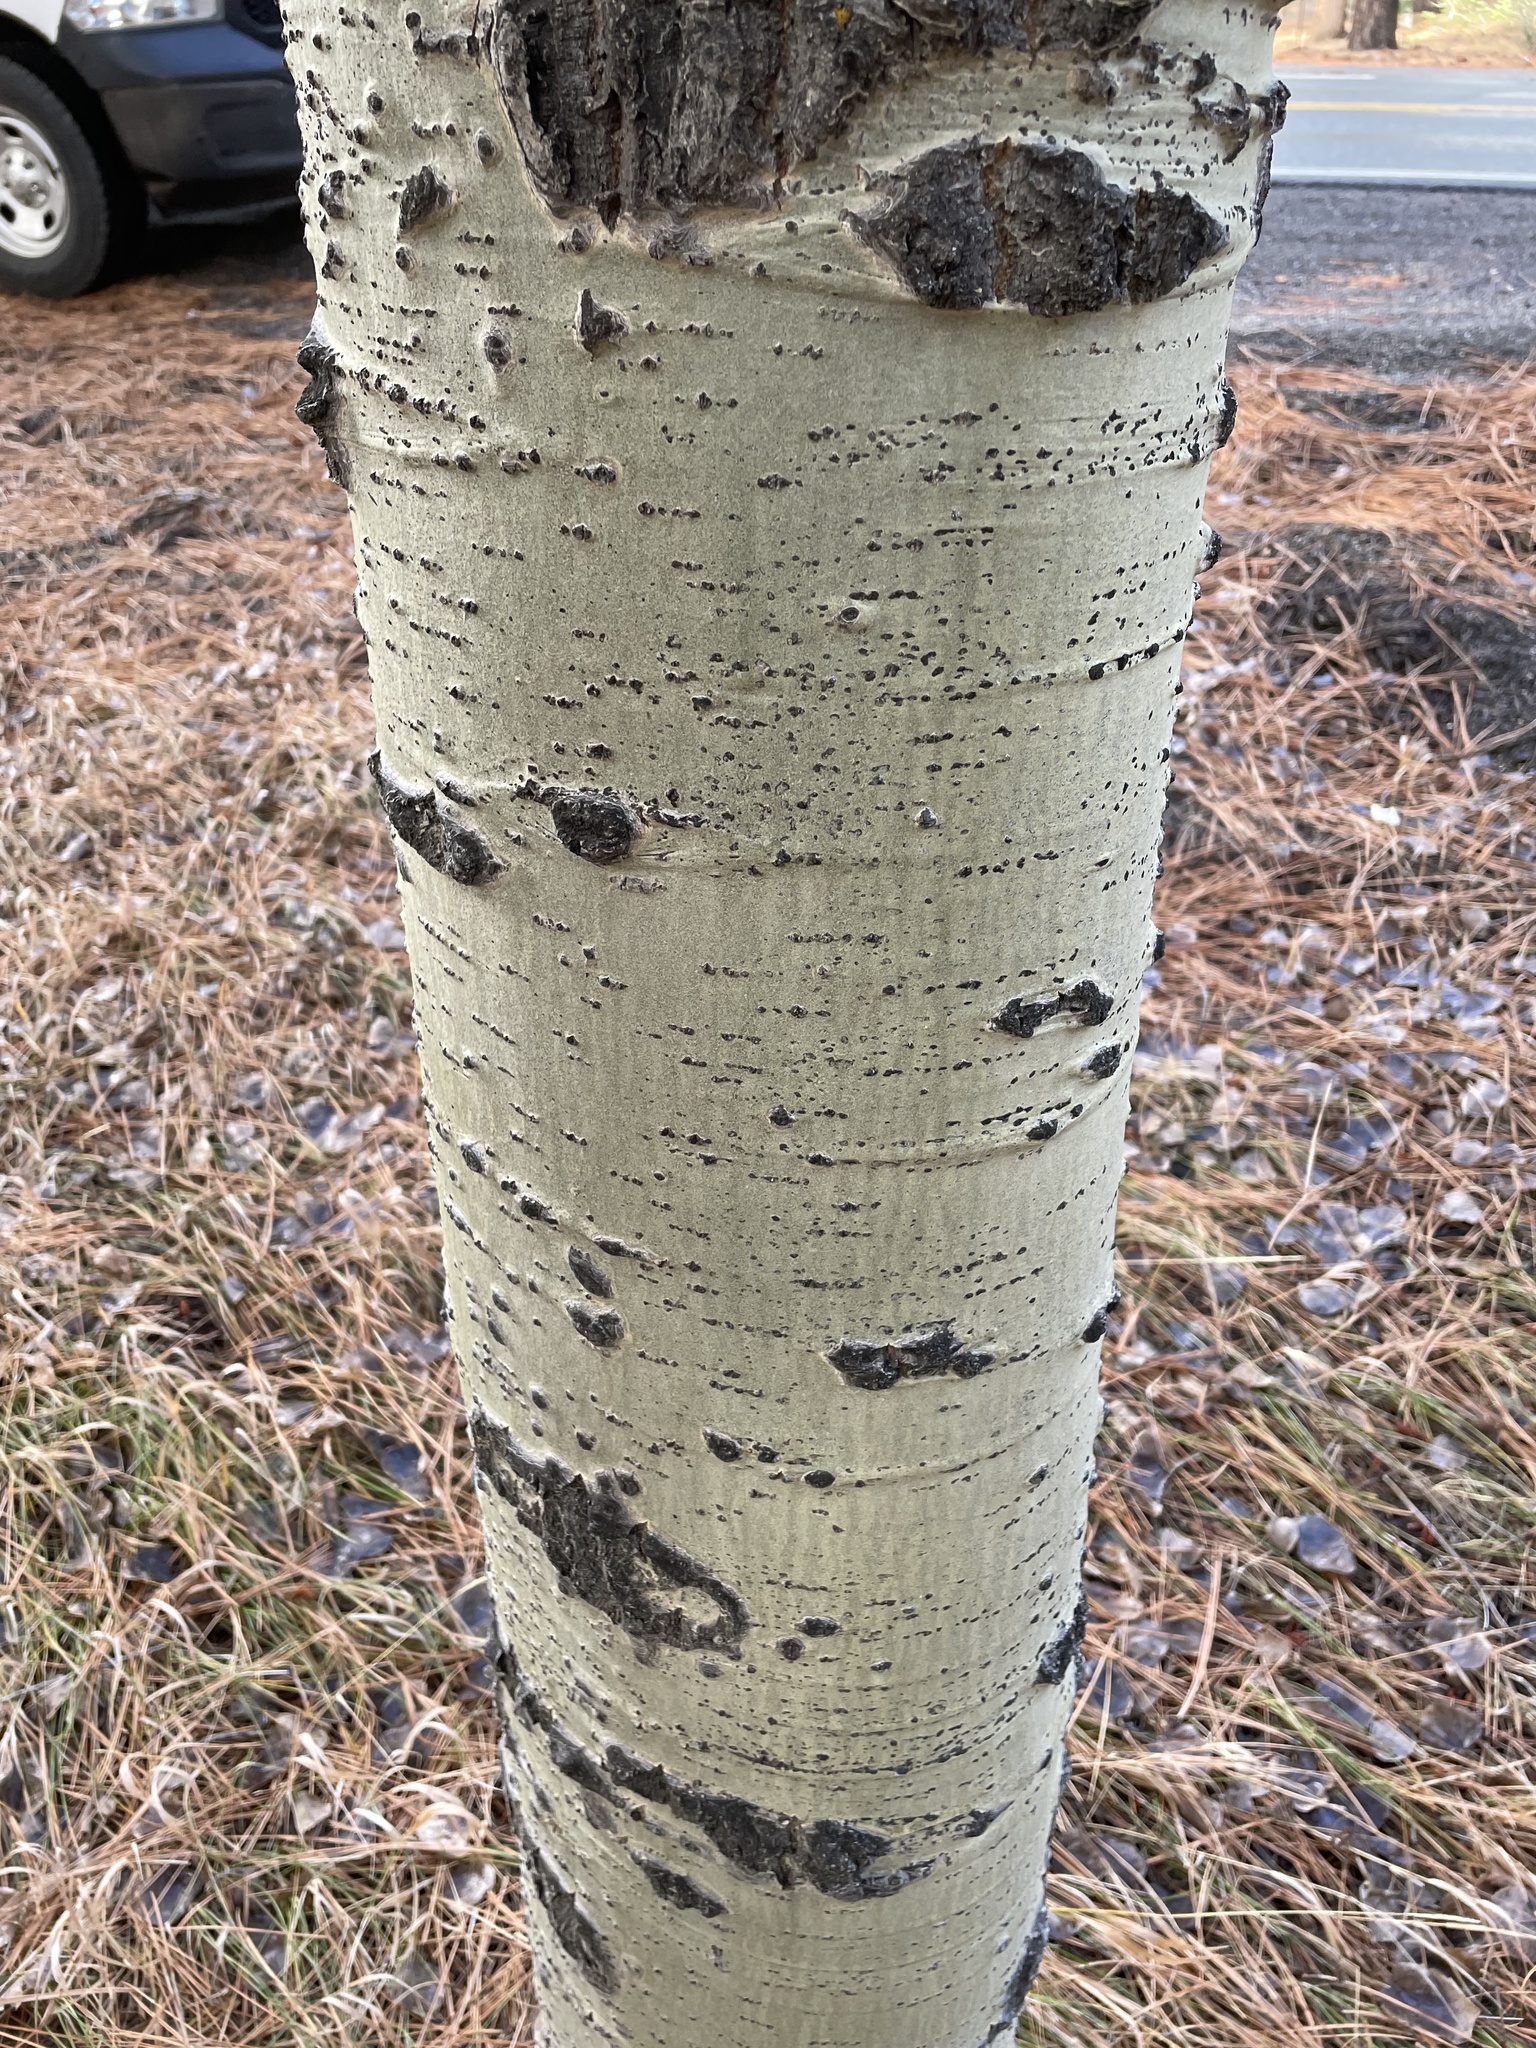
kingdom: Plantae
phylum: Tracheophyta
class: Magnoliopsida
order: Malpighiales
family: Salicaceae
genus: Populus
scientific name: Populus tremuloides
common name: Quaking aspen
